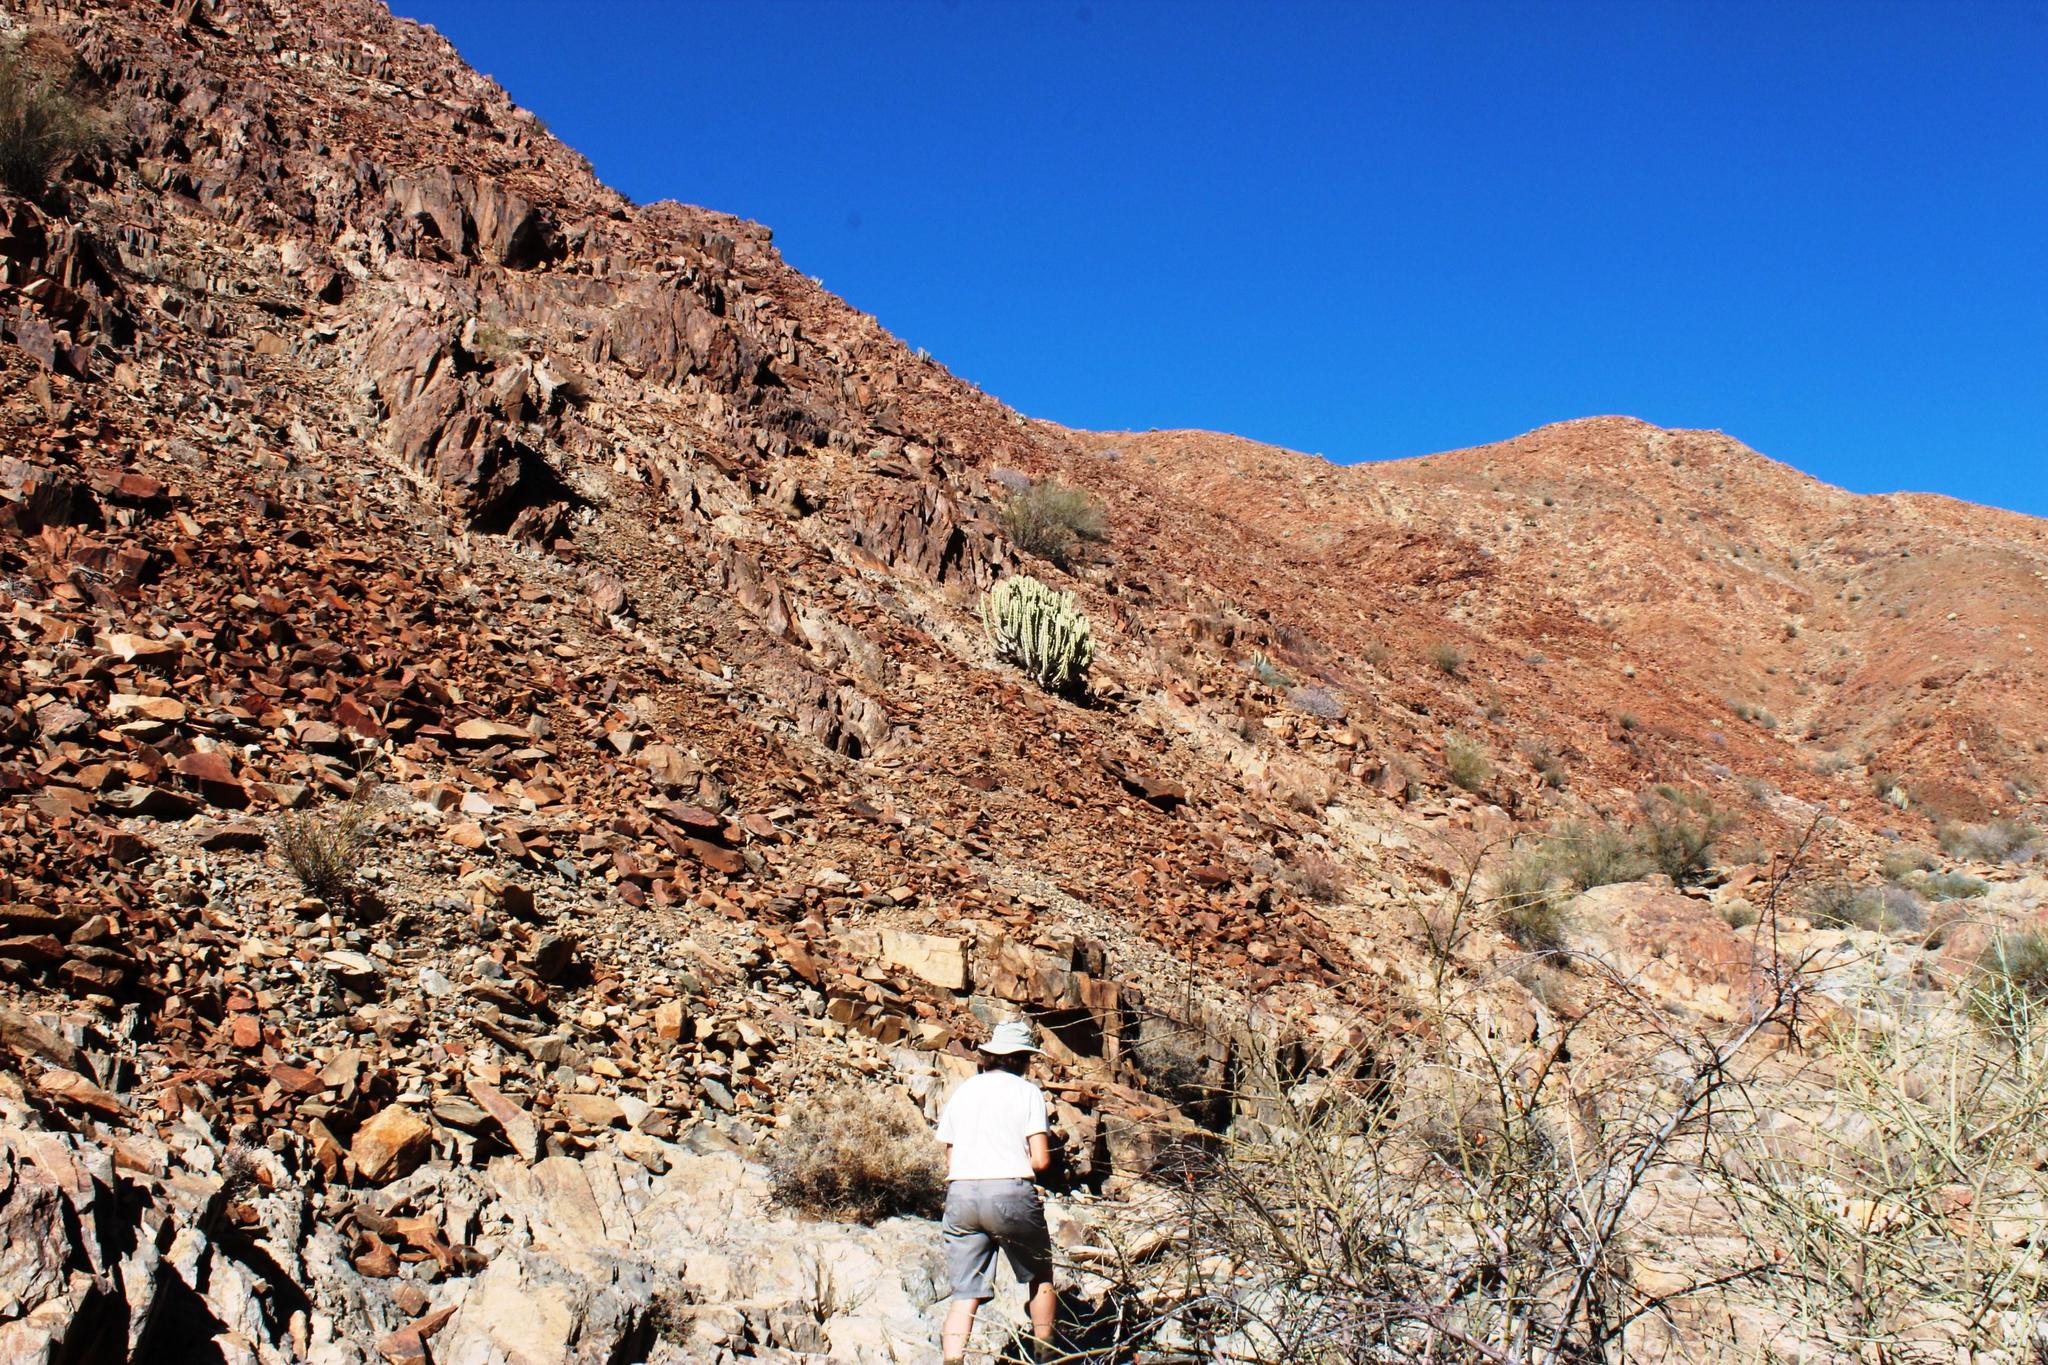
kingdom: Plantae
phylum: Tracheophyta
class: Magnoliopsida
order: Malpighiales
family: Euphorbiaceae
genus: Euphorbia
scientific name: Euphorbia virosa
